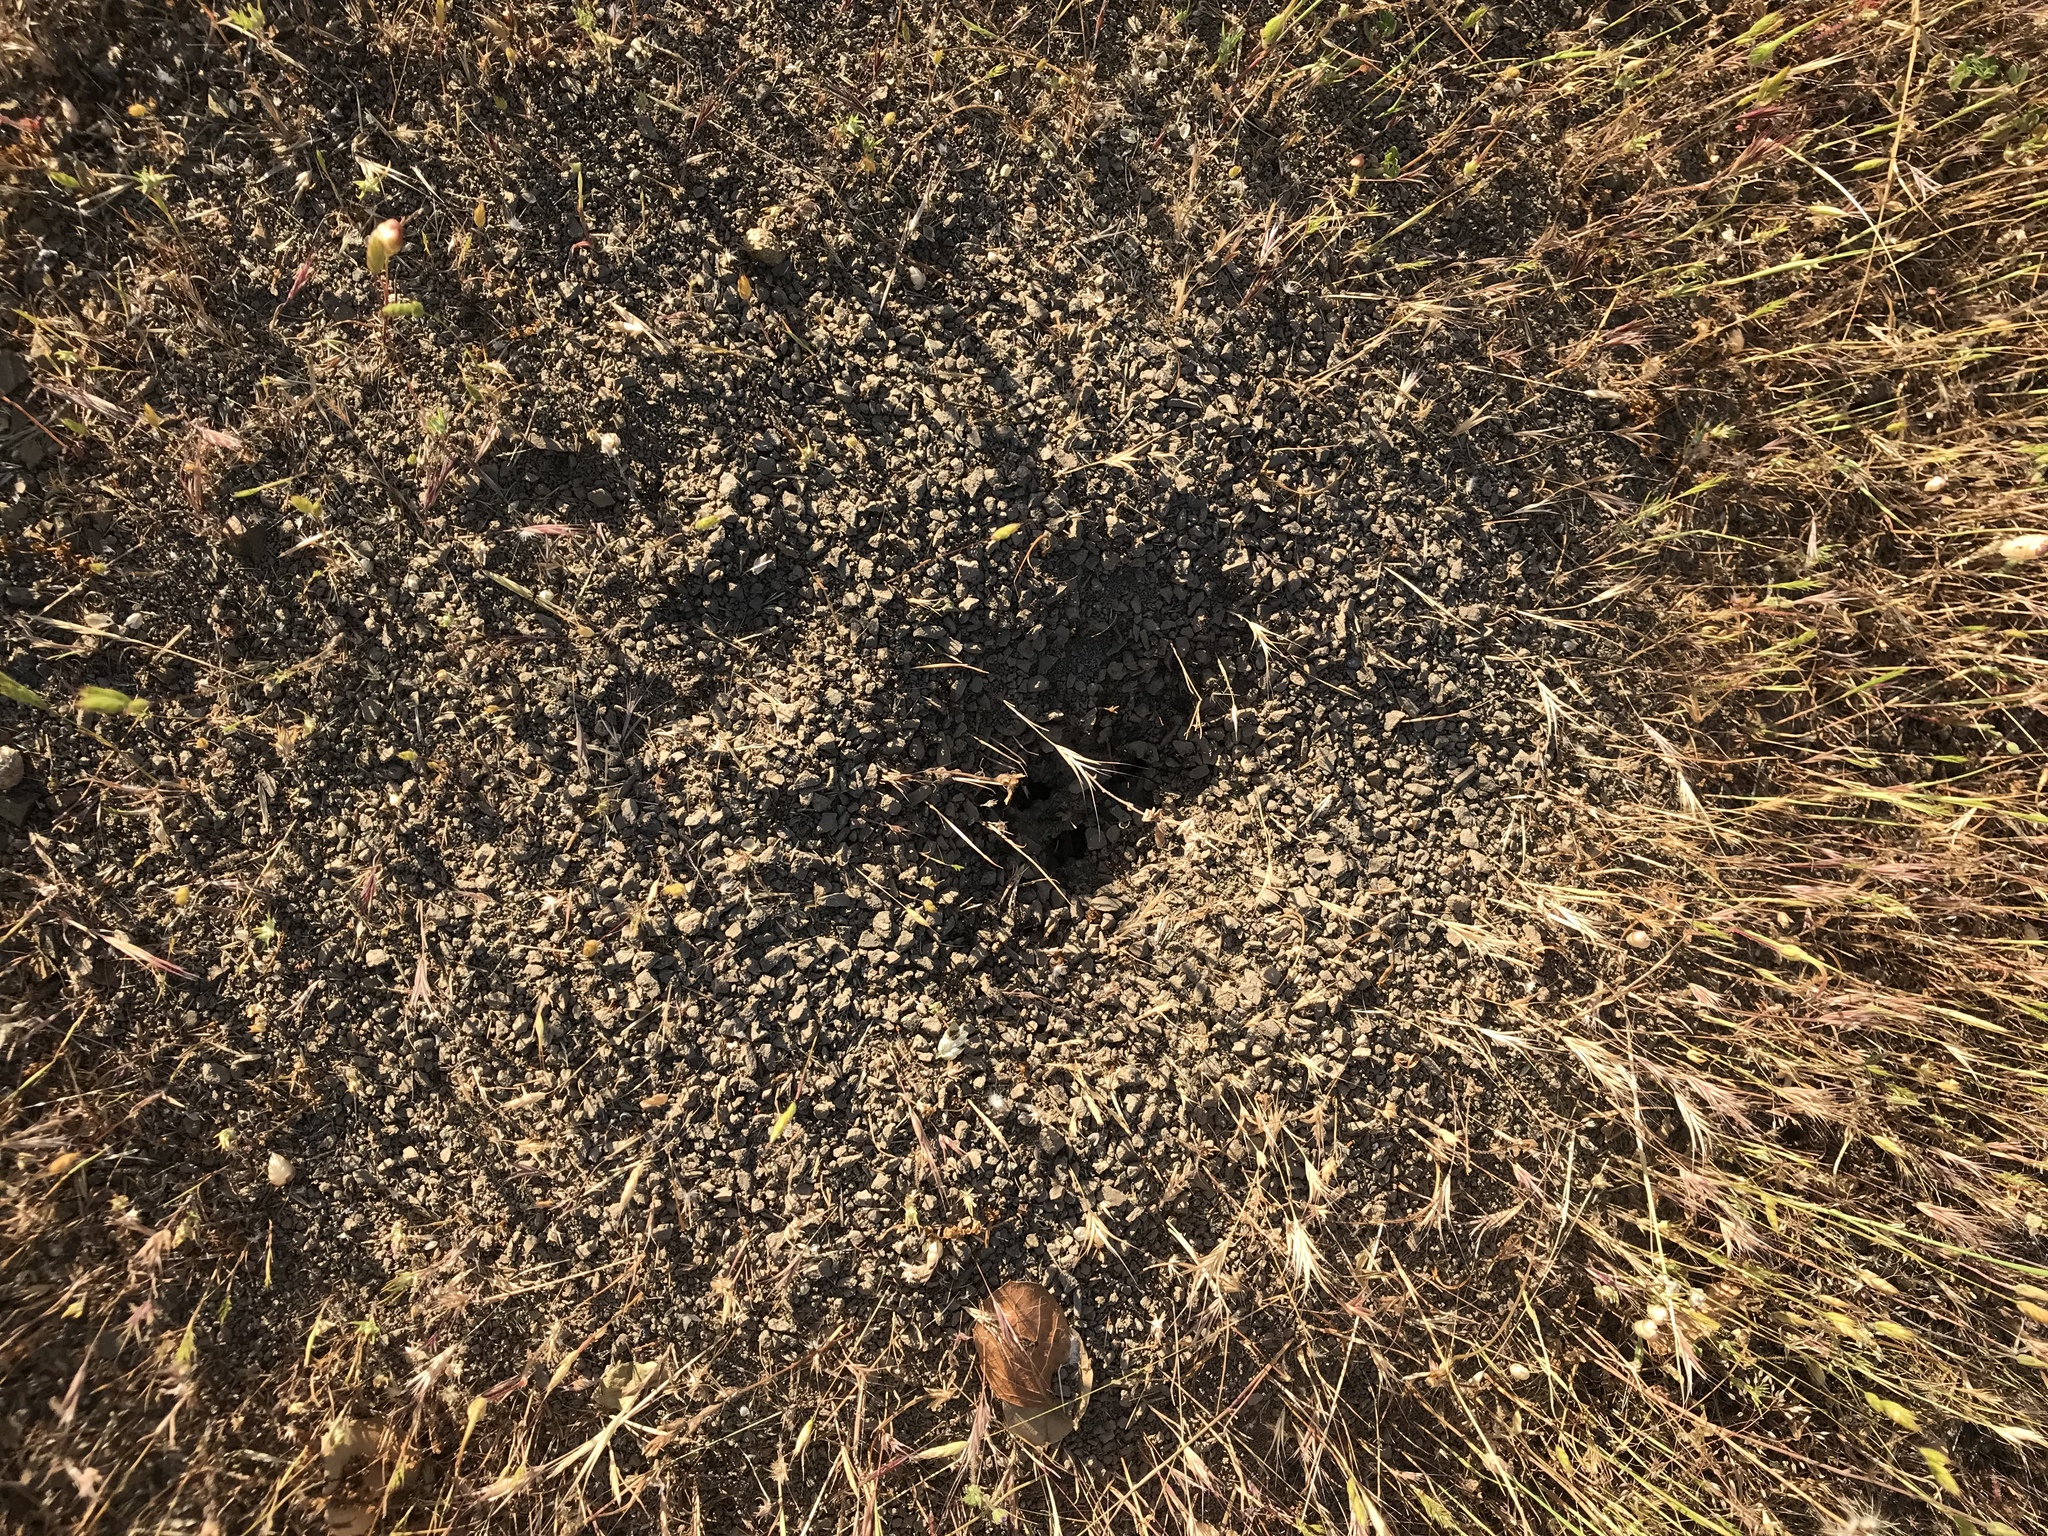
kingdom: Animalia
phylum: Arthropoda
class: Insecta
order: Hymenoptera
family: Formicidae
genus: Veromessor
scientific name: Veromessor andrei
